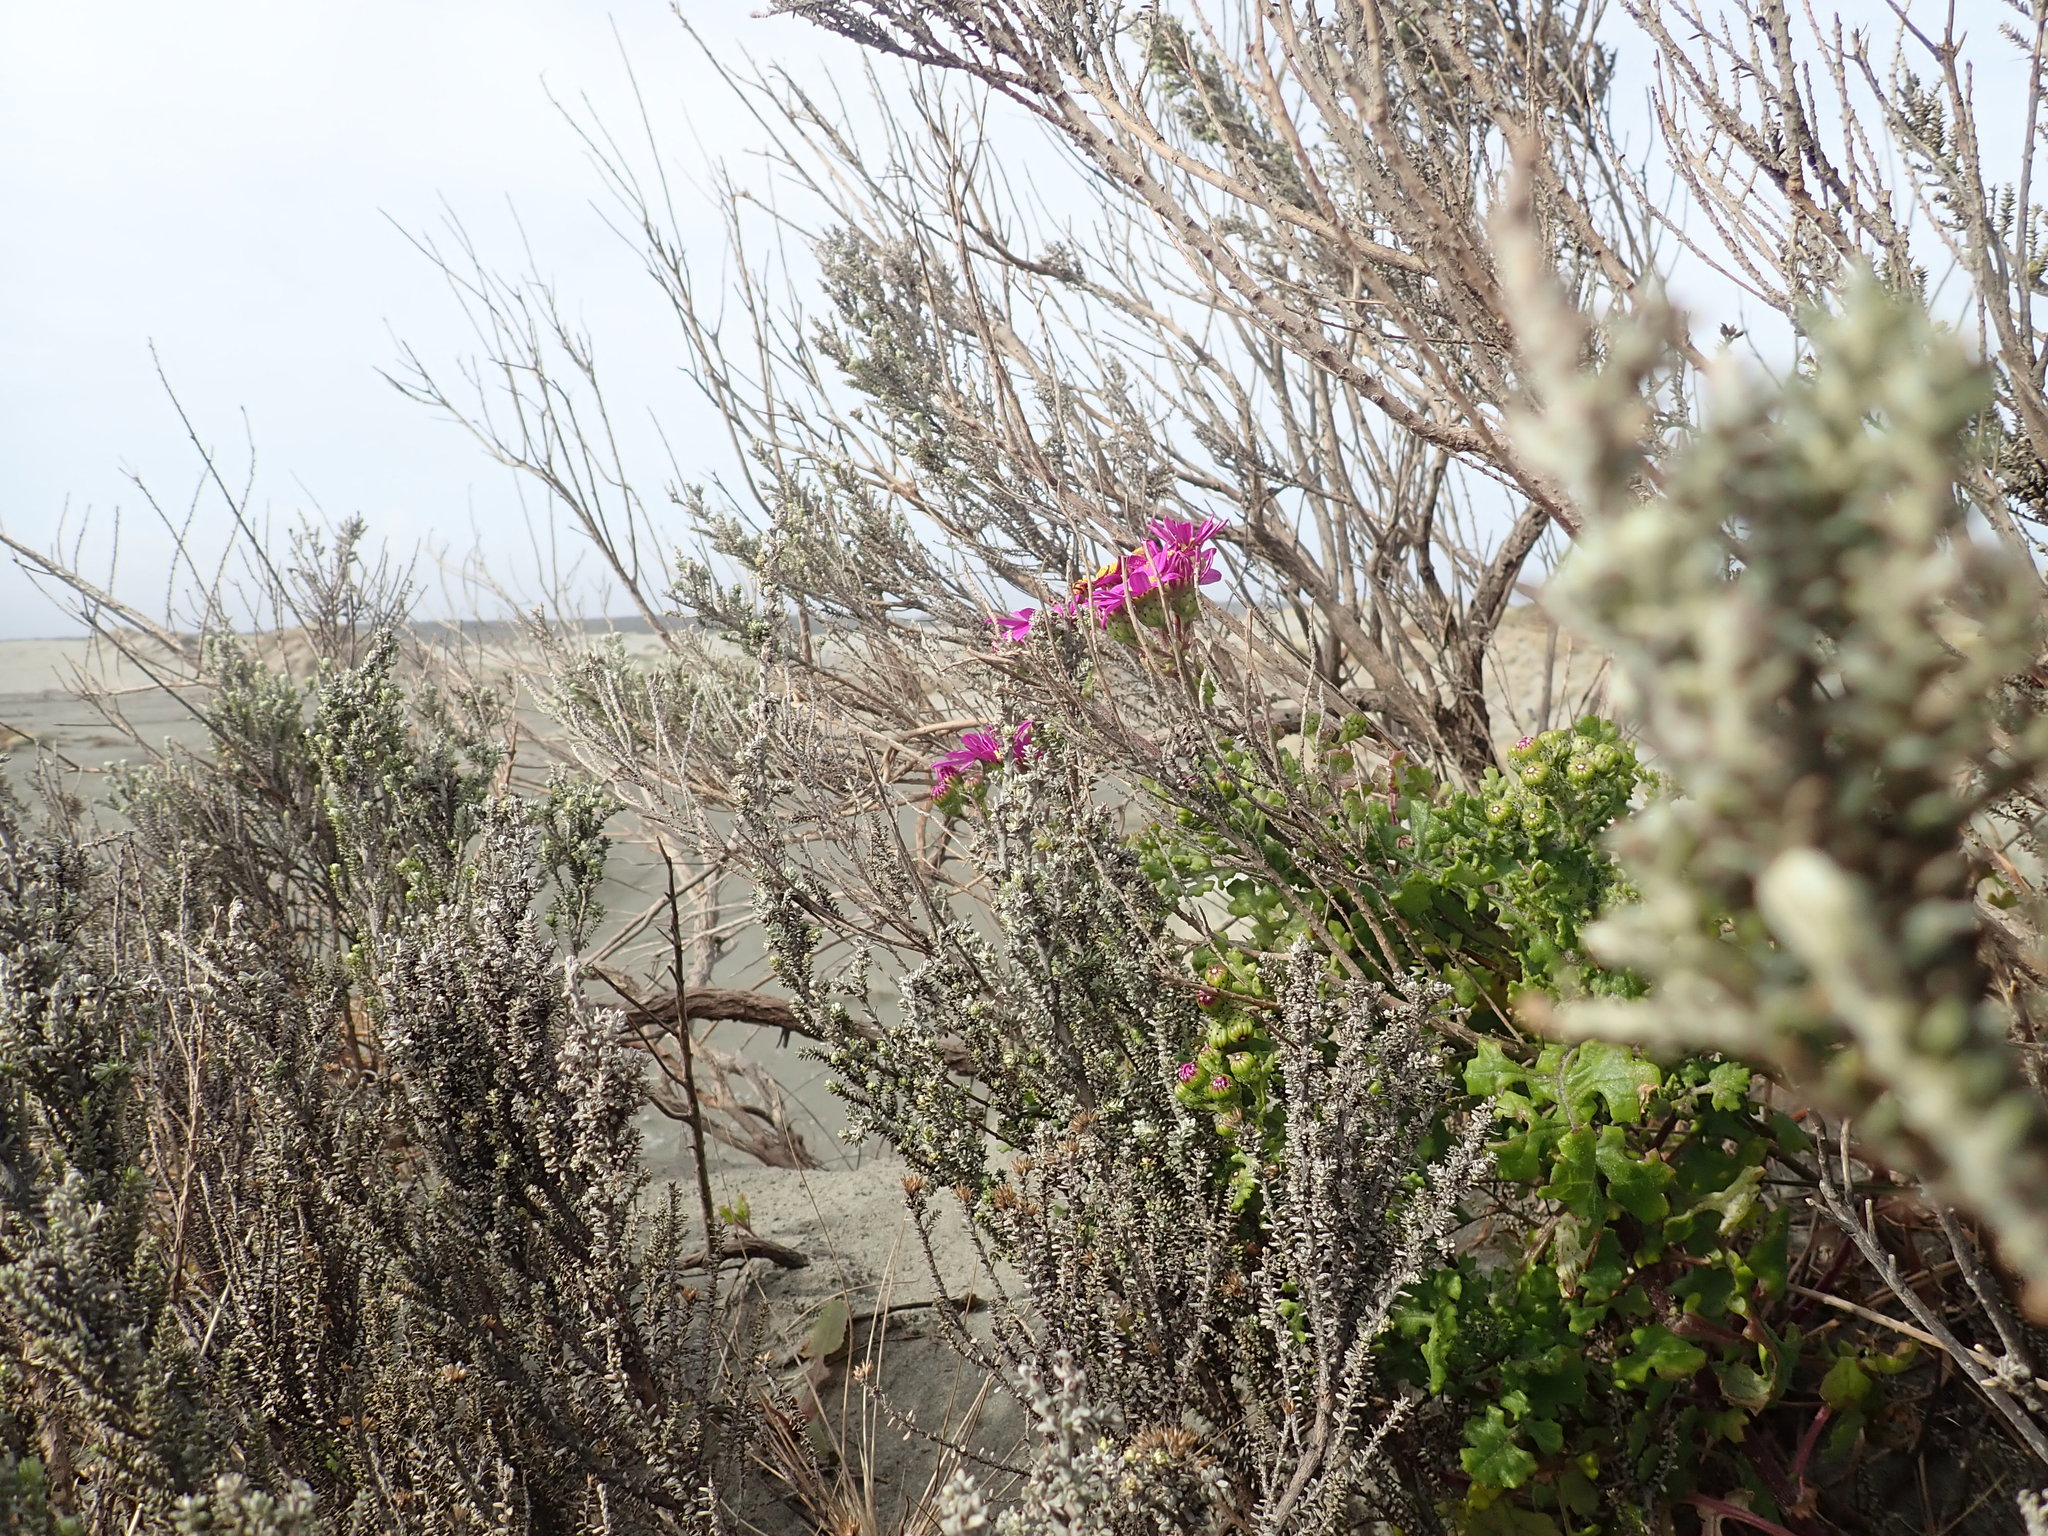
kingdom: Plantae
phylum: Tracheophyta
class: Magnoliopsida
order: Asterales
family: Asteraceae
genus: Senecio
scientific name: Senecio elegans
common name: Purple groundsel
